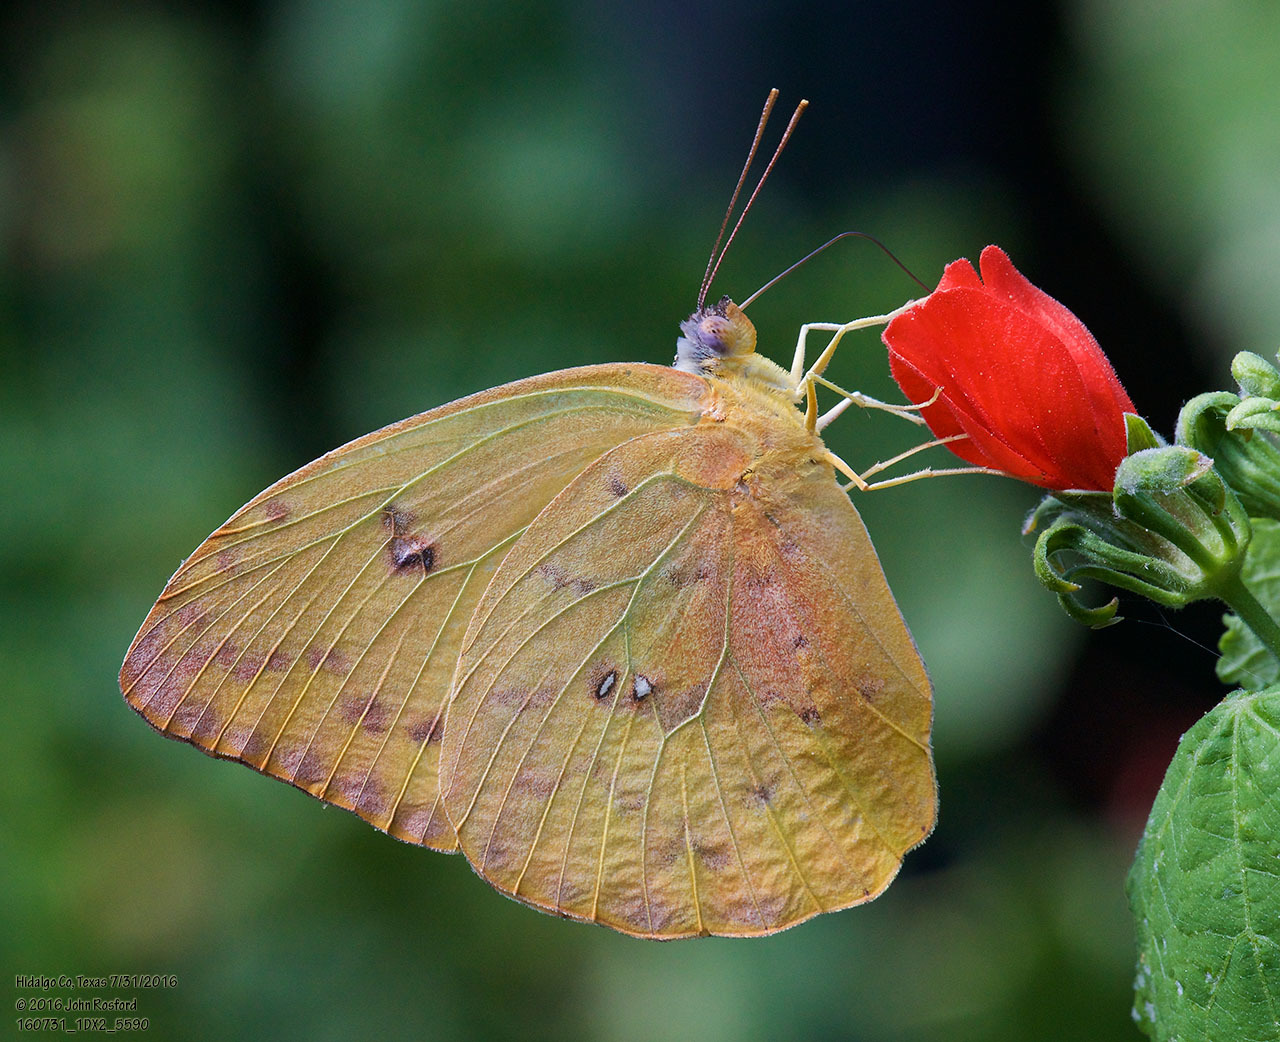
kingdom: Animalia
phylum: Arthropoda
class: Insecta
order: Lepidoptera
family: Pieridae
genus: Phoebis
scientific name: Phoebis philea
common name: Orange-barred giant sulphur
